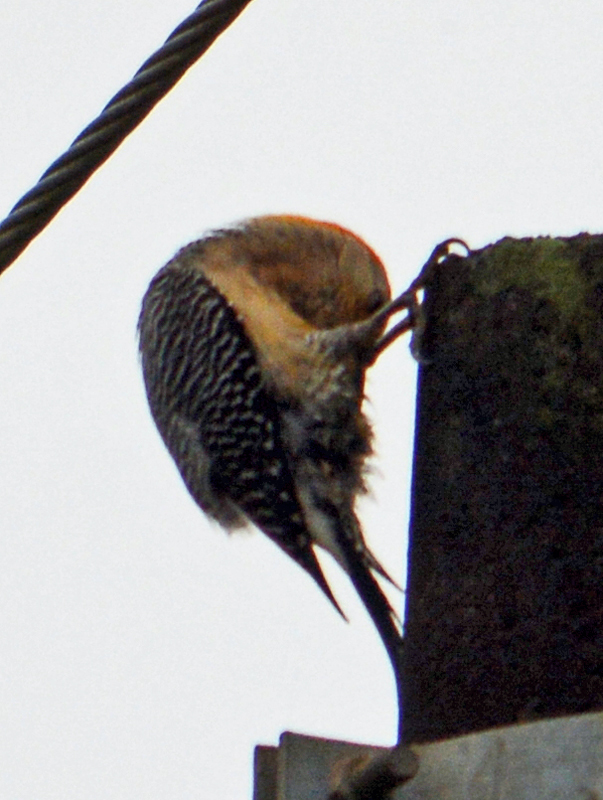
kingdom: Animalia
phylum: Chordata
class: Aves
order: Piciformes
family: Picidae
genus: Melanerpes
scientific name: Melanerpes aurifrons
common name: Golden-fronted woodpecker
